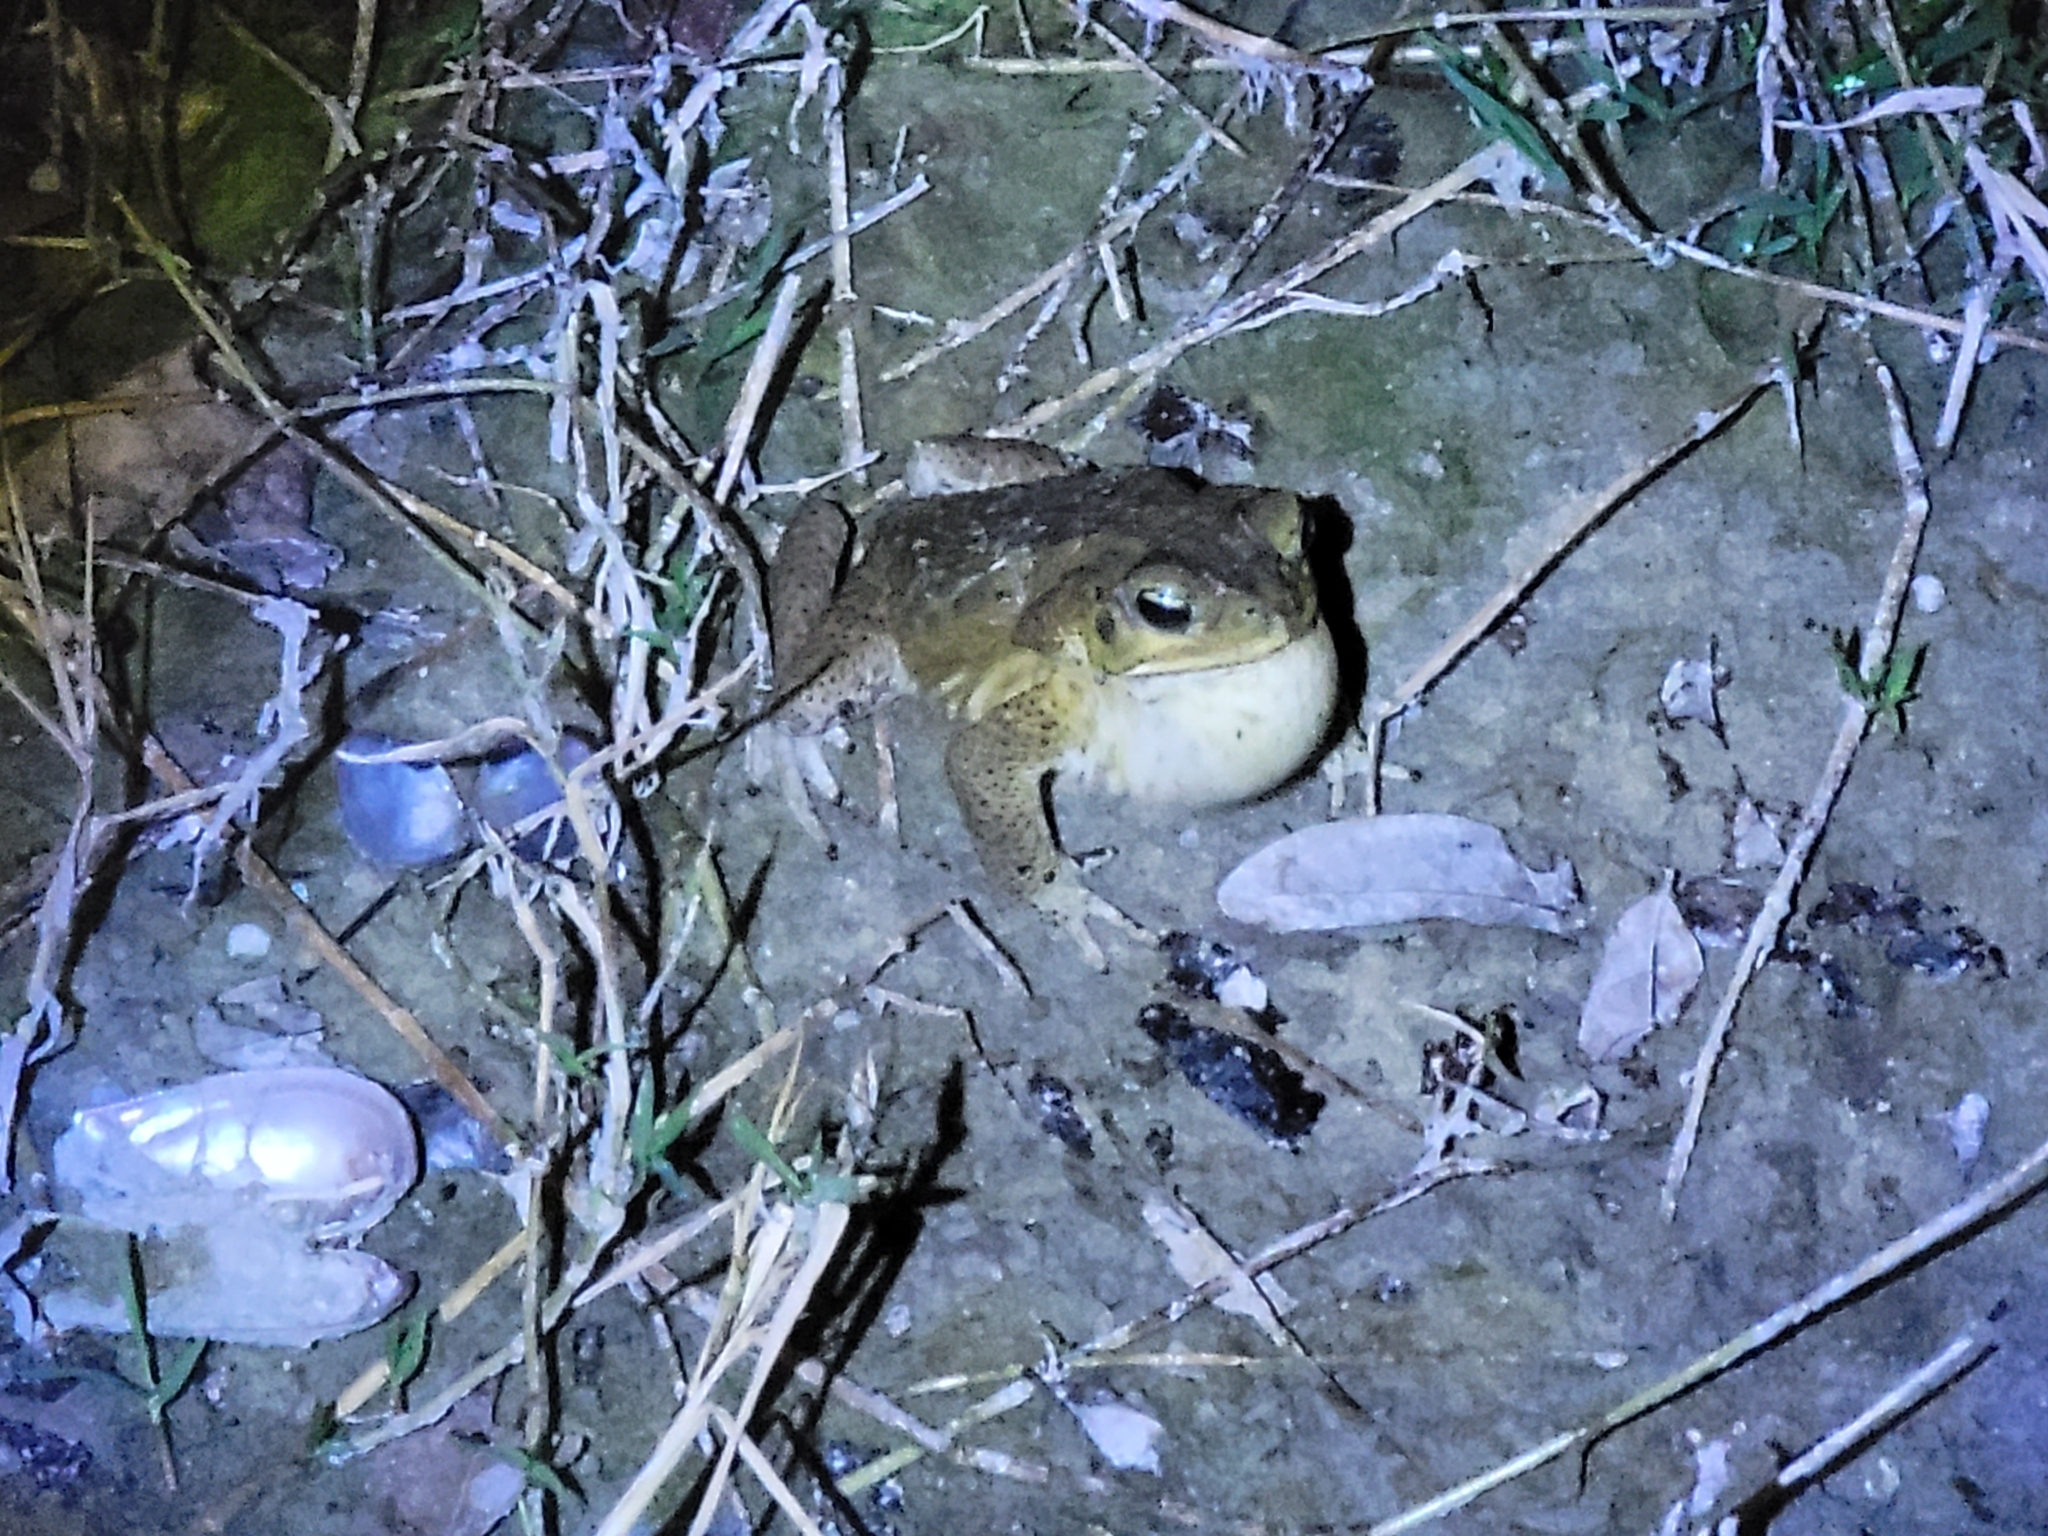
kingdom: Animalia
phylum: Chordata
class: Amphibia
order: Anura
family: Bufonidae
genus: Rhinella
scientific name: Rhinella marina
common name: Cane toad
